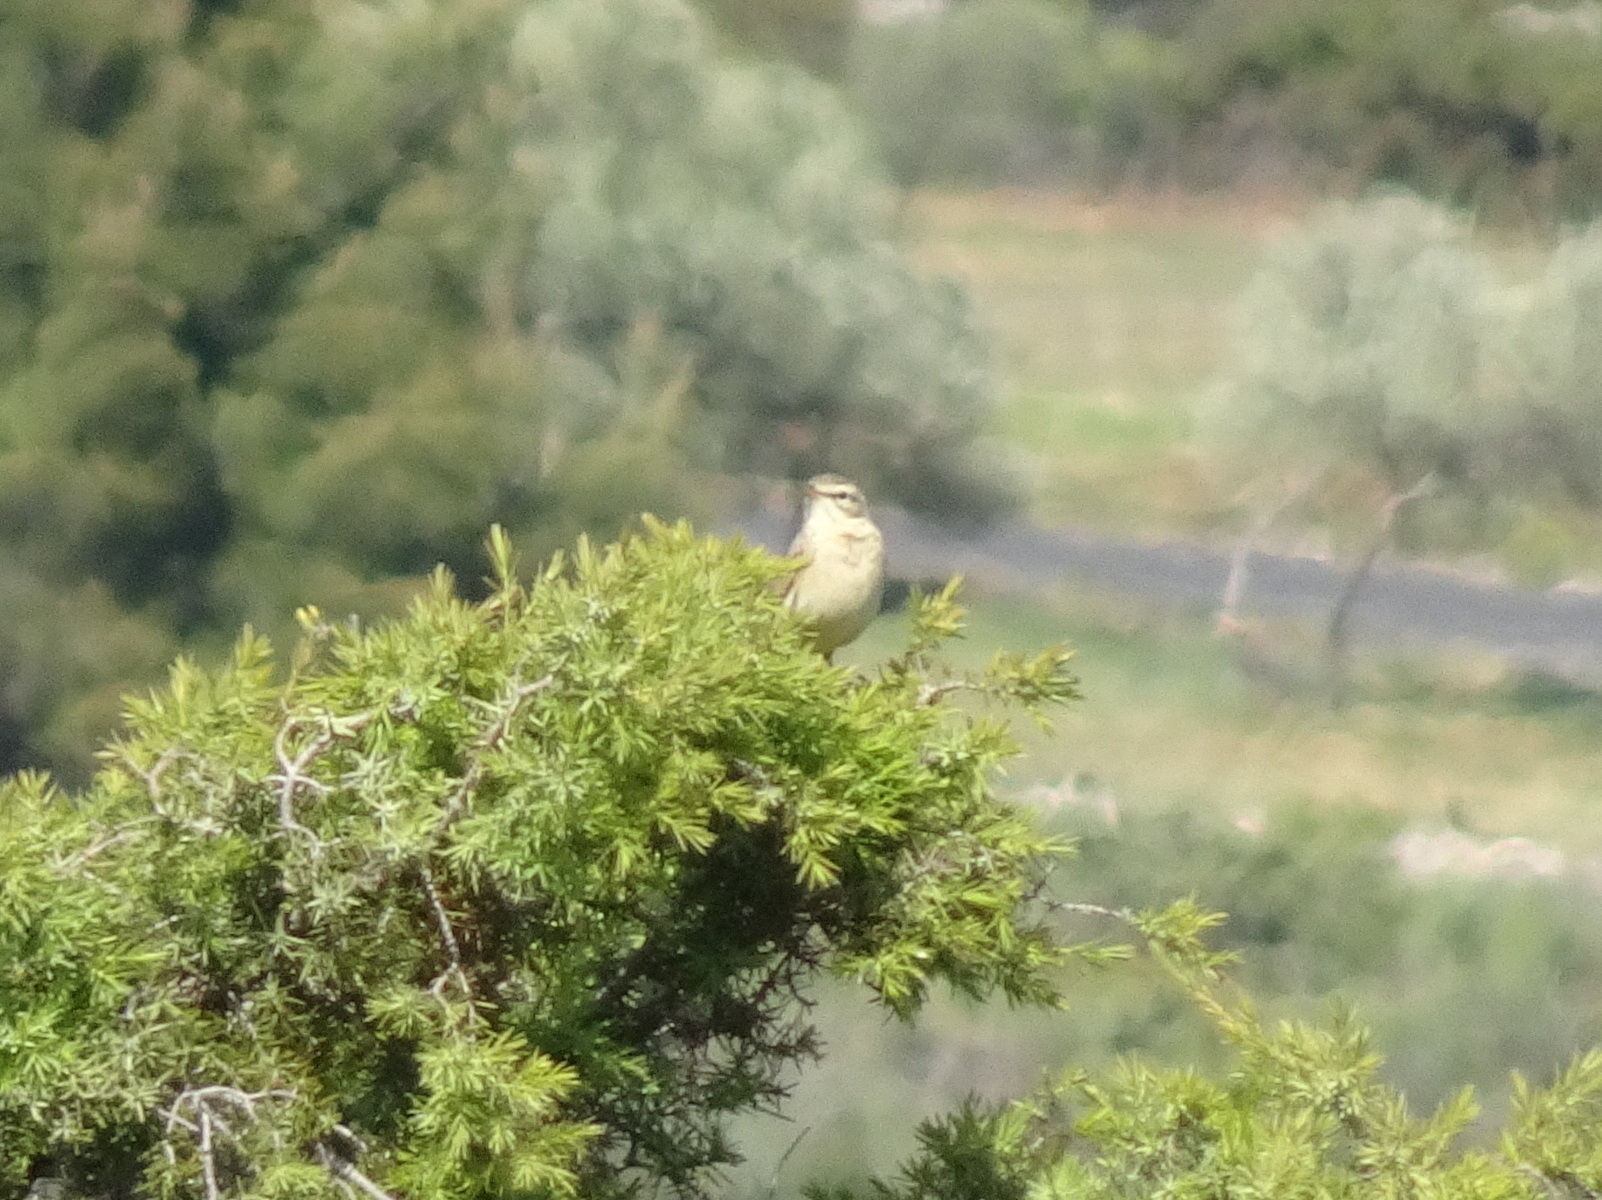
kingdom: Animalia
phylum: Chordata
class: Aves
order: Passeriformes
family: Motacillidae
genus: Anthus
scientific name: Anthus campestris
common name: Tawny pipit
